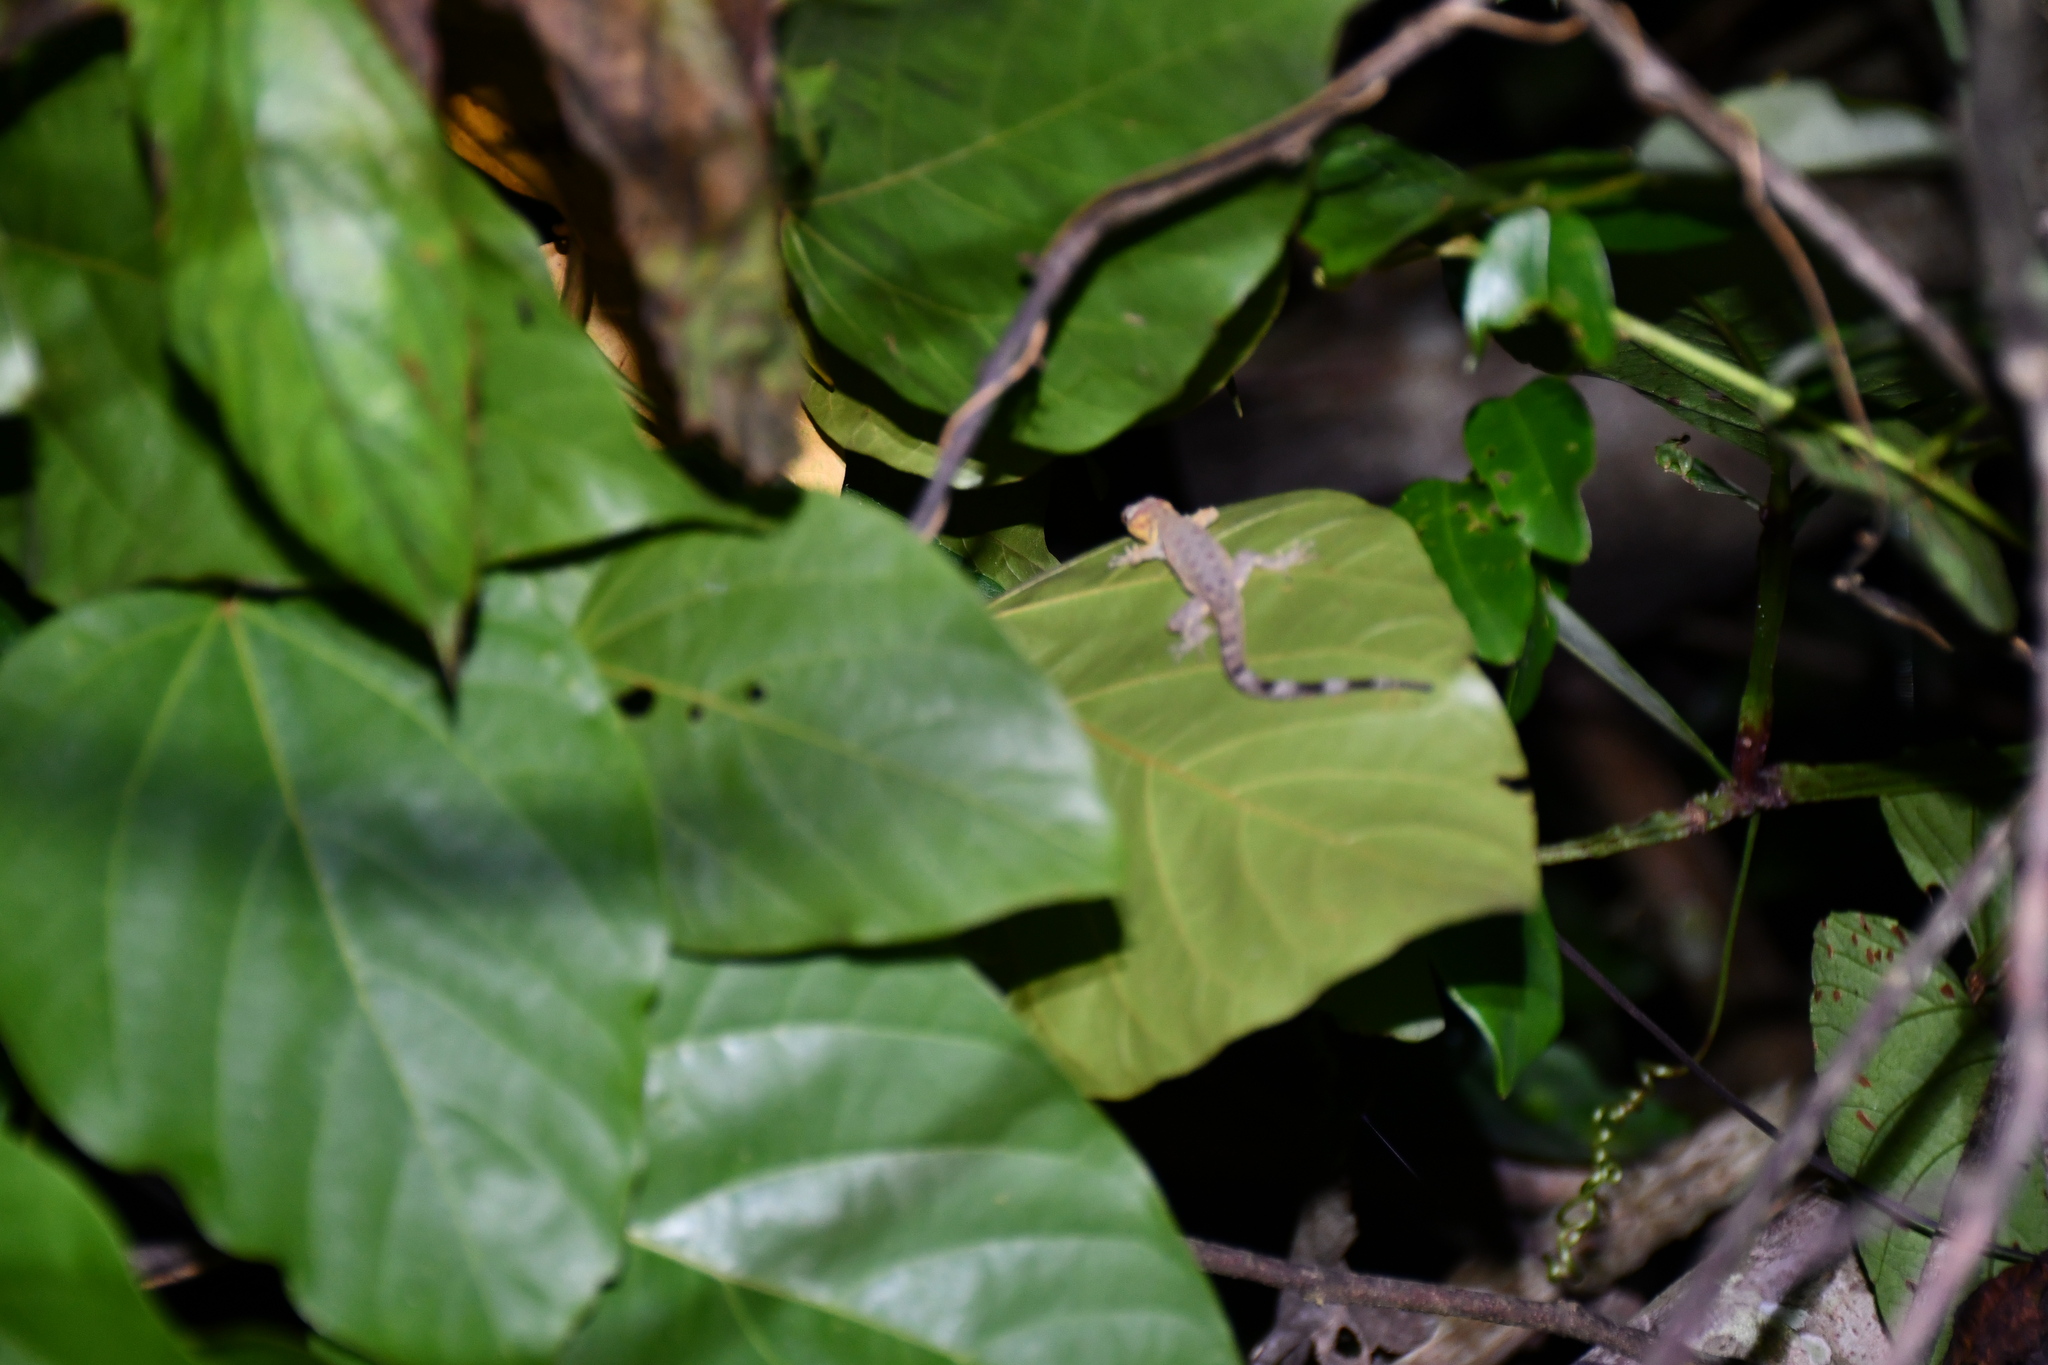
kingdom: Animalia
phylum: Chordata
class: Squamata
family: Sphaerodactylidae
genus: Gonatodes
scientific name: Gonatodes humeralis
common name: South american clawed gecko
